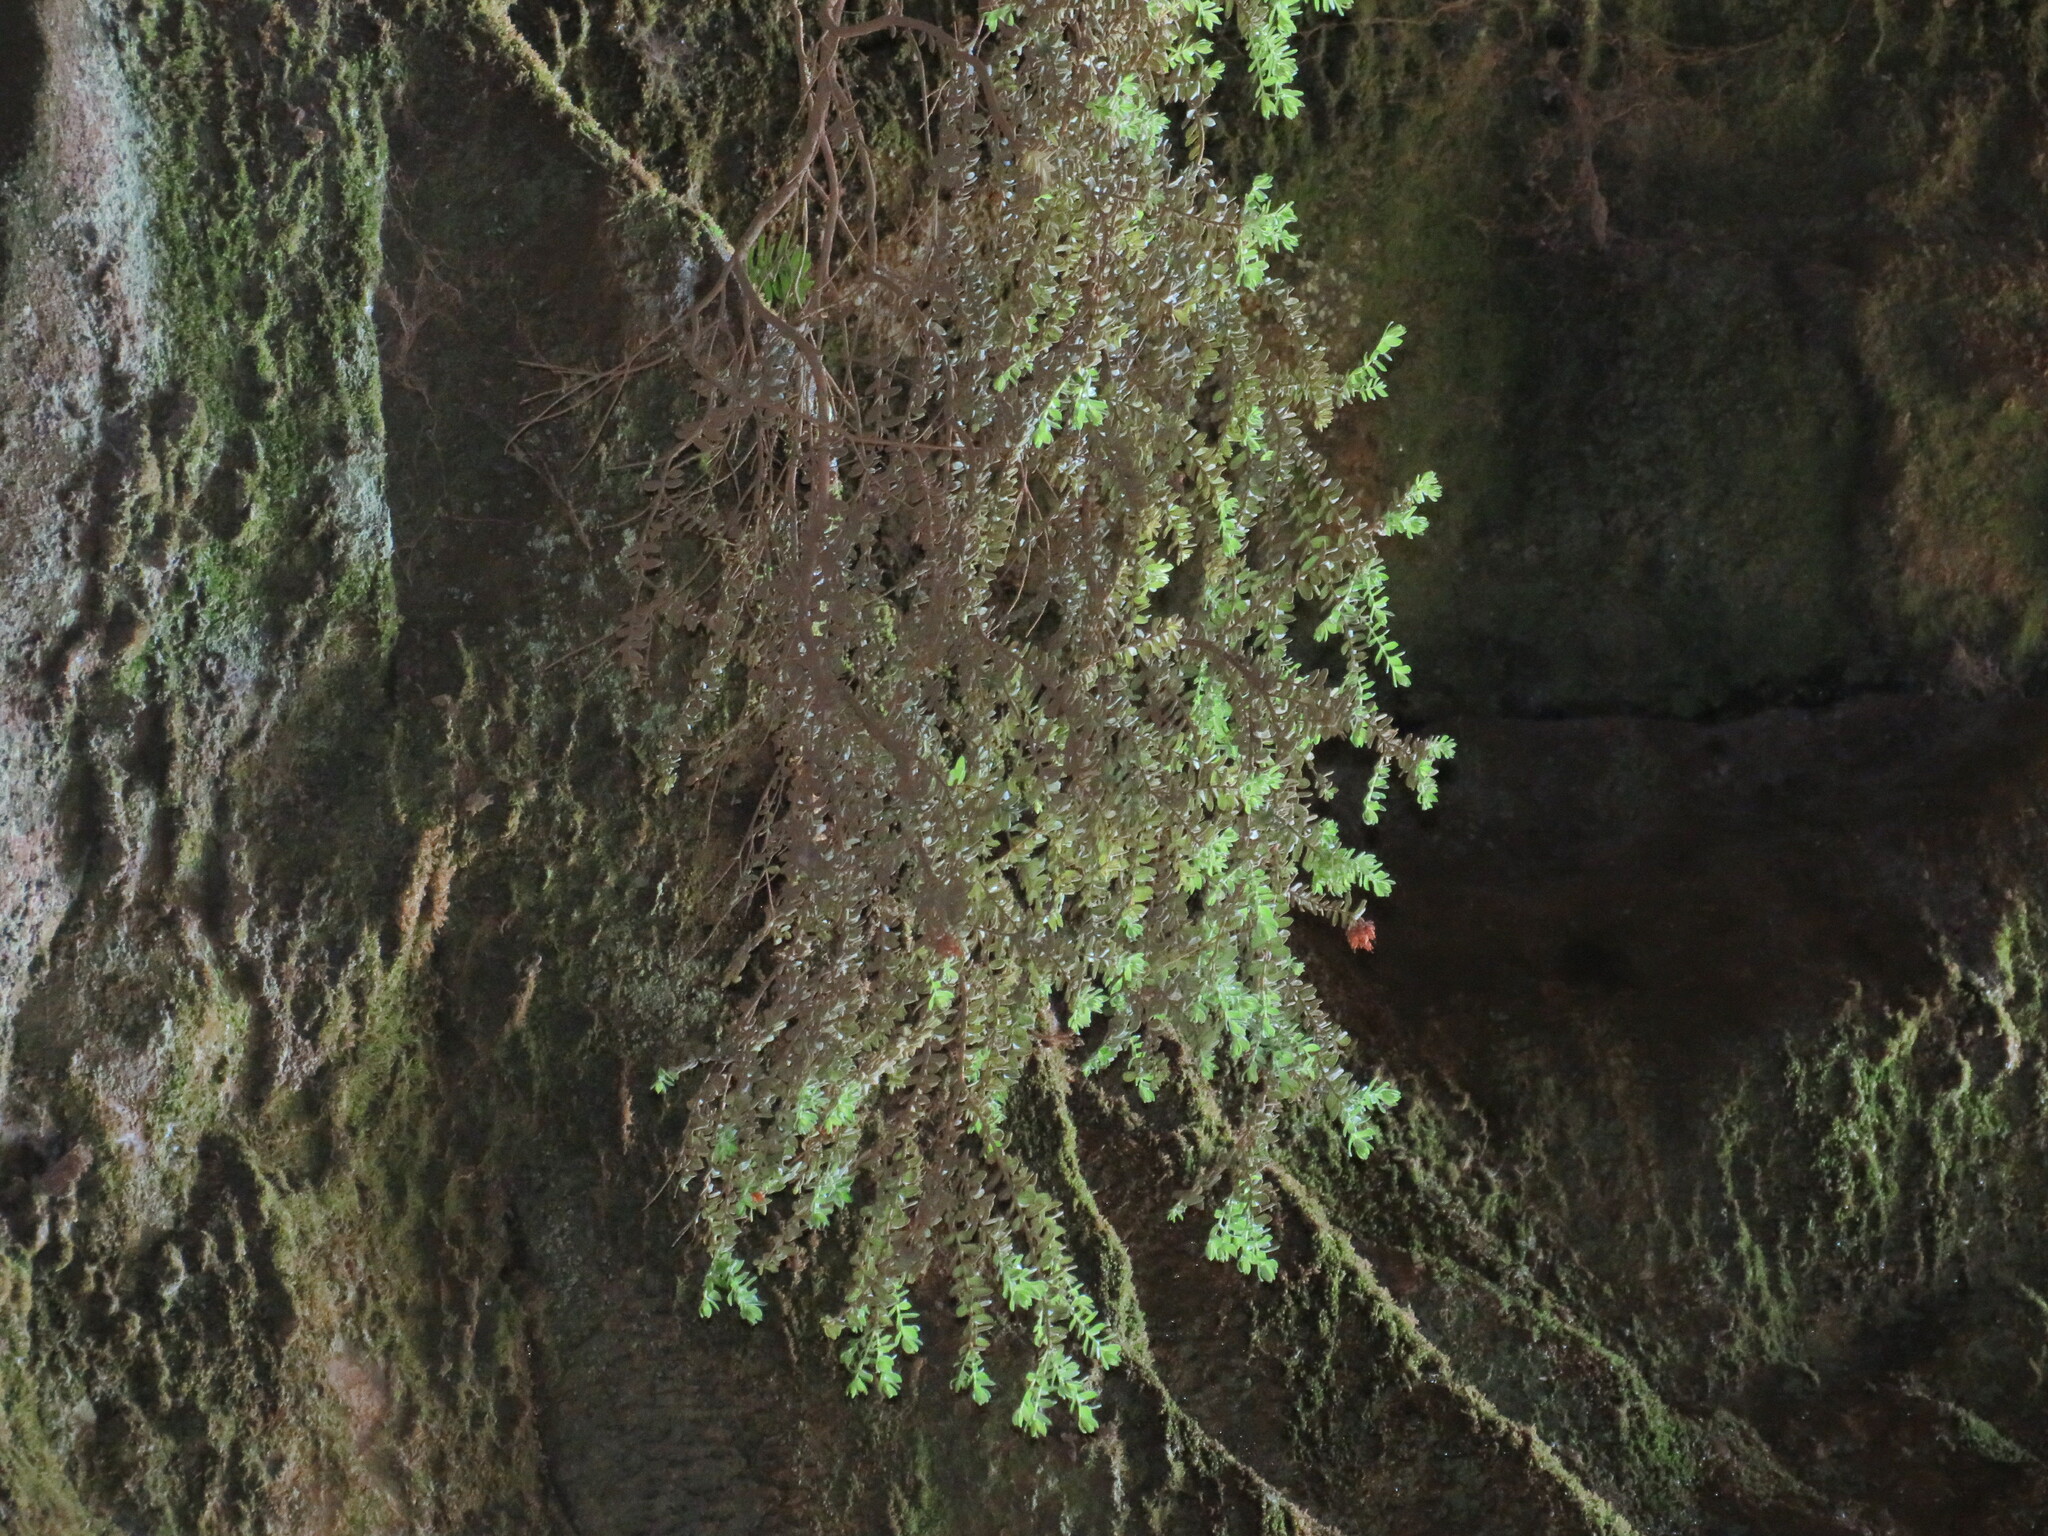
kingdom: Plantae
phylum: Tracheophyta
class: Magnoliopsida
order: Ericales
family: Ericaceae
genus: Erica
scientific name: Erica marifolia
